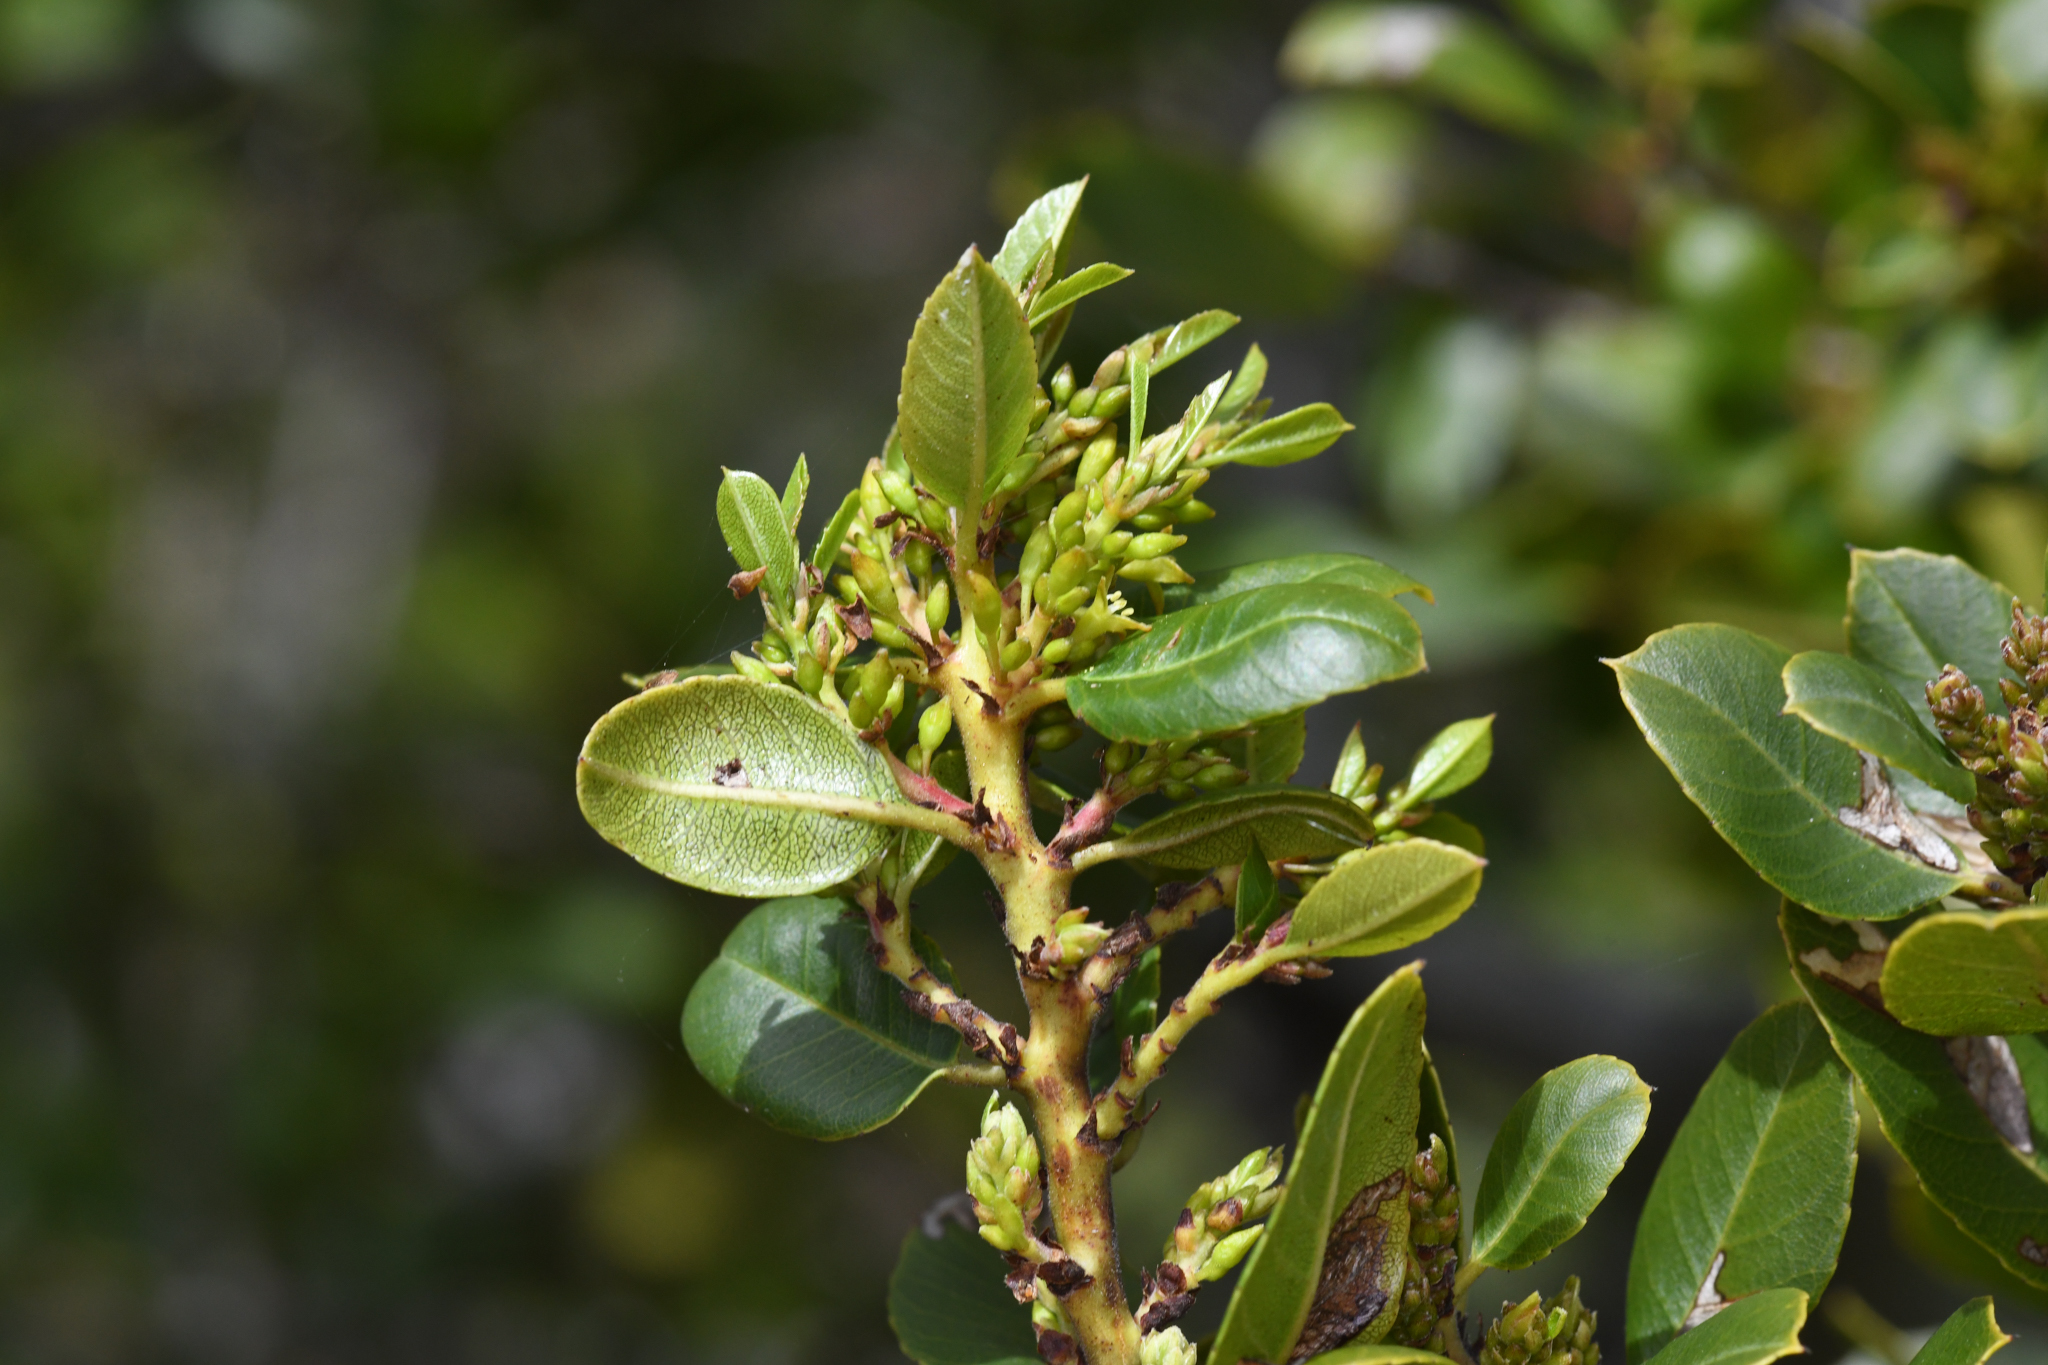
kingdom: Plantae
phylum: Tracheophyta
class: Magnoliopsida
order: Rosales
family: Rhamnaceae
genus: Endotropis
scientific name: Endotropis crocea
